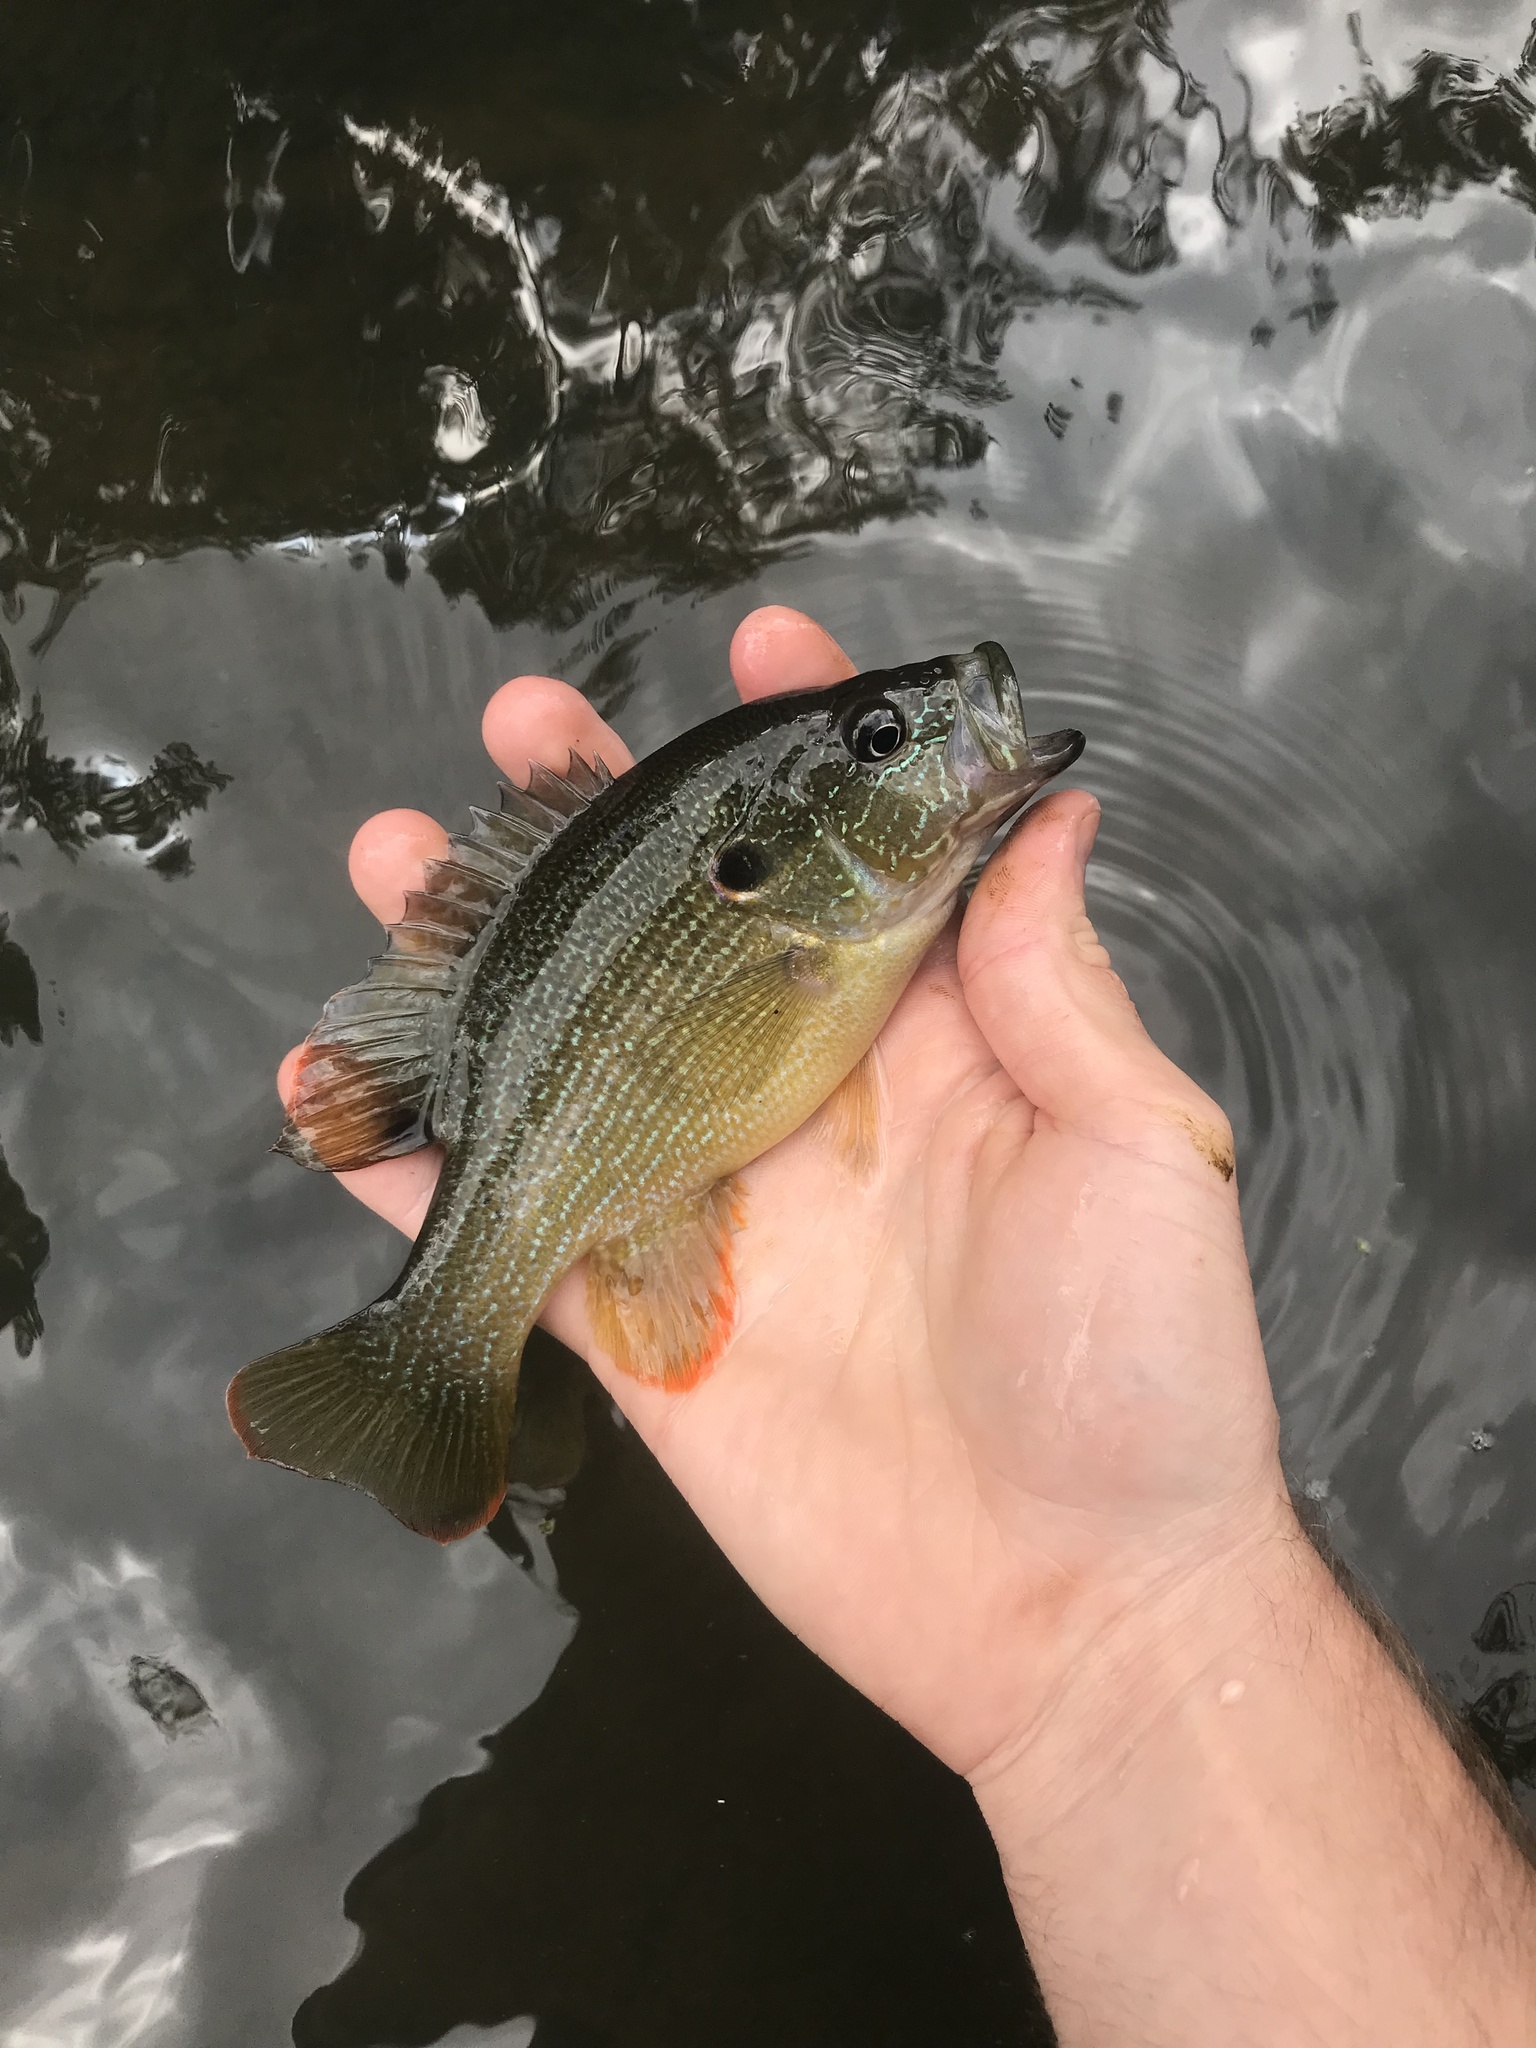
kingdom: Animalia
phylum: Chordata
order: Perciformes
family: Centrarchidae
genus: Lepomis
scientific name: Lepomis cyanellus
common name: Green sunfish
